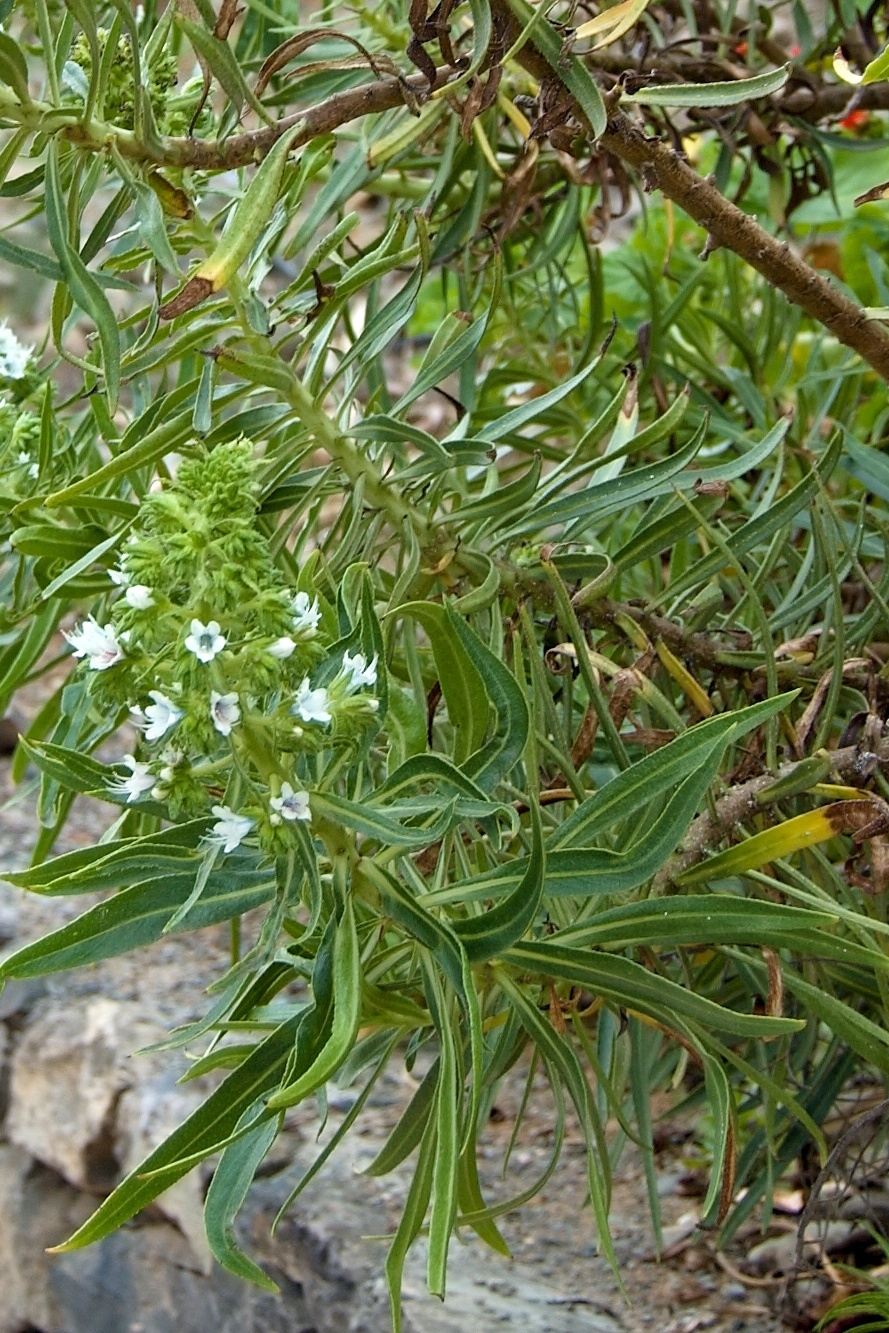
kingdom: Plantae
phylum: Tracheophyta
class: Magnoliopsida
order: Boraginales
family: Boraginaceae
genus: Echium
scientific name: Echium decaisnei
